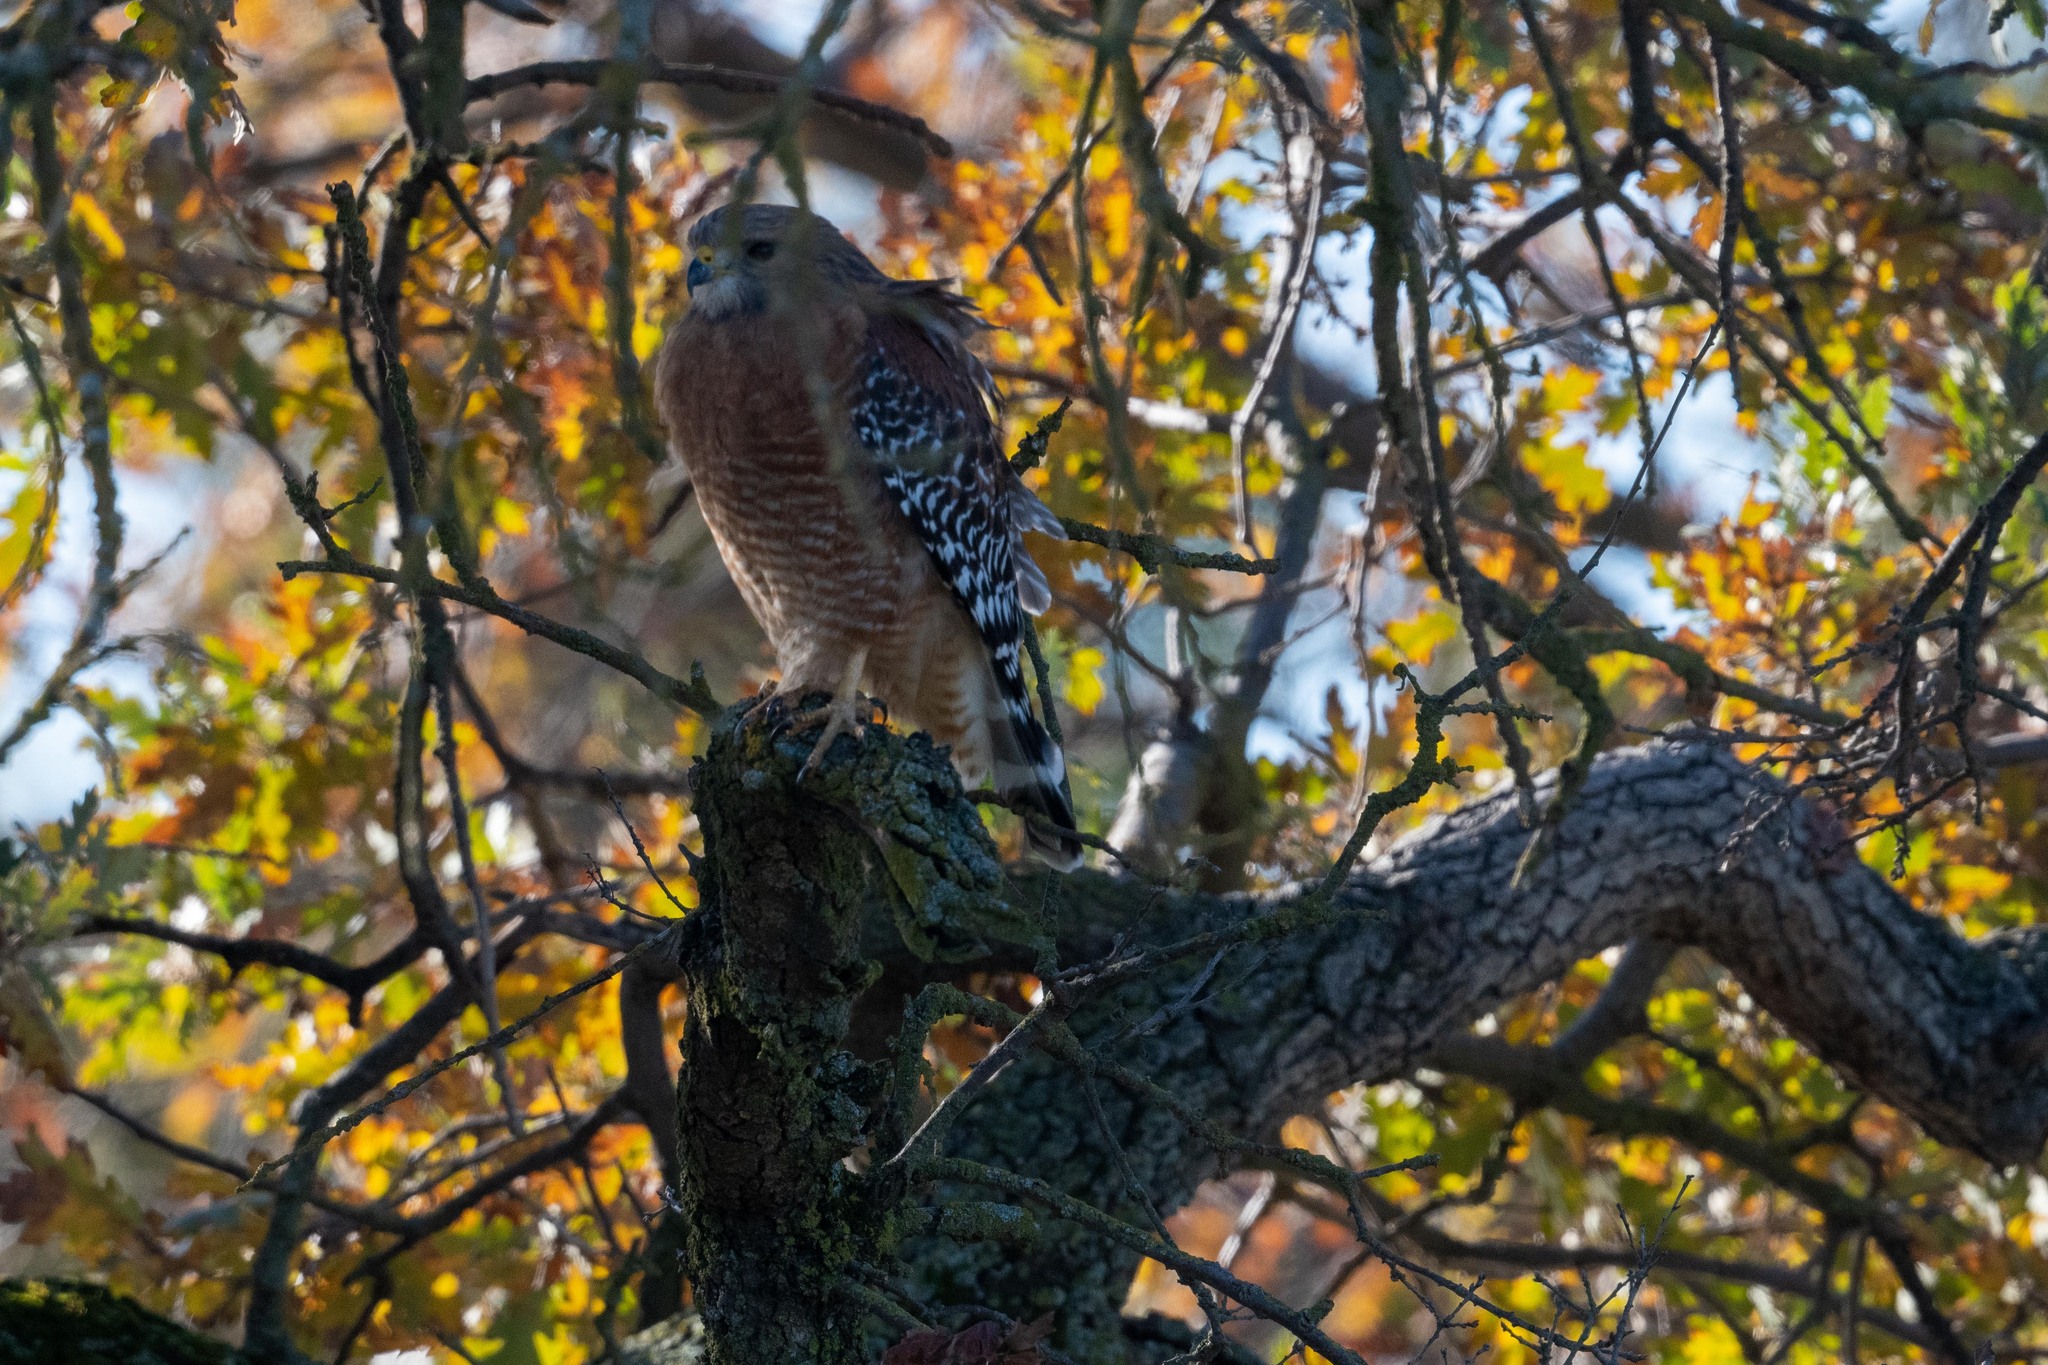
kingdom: Animalia
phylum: Chordata
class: Aves
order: Accipitriformes
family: Accipitridae
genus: Buteo
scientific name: Buteo lineatus
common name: Red-shouldered hawk
